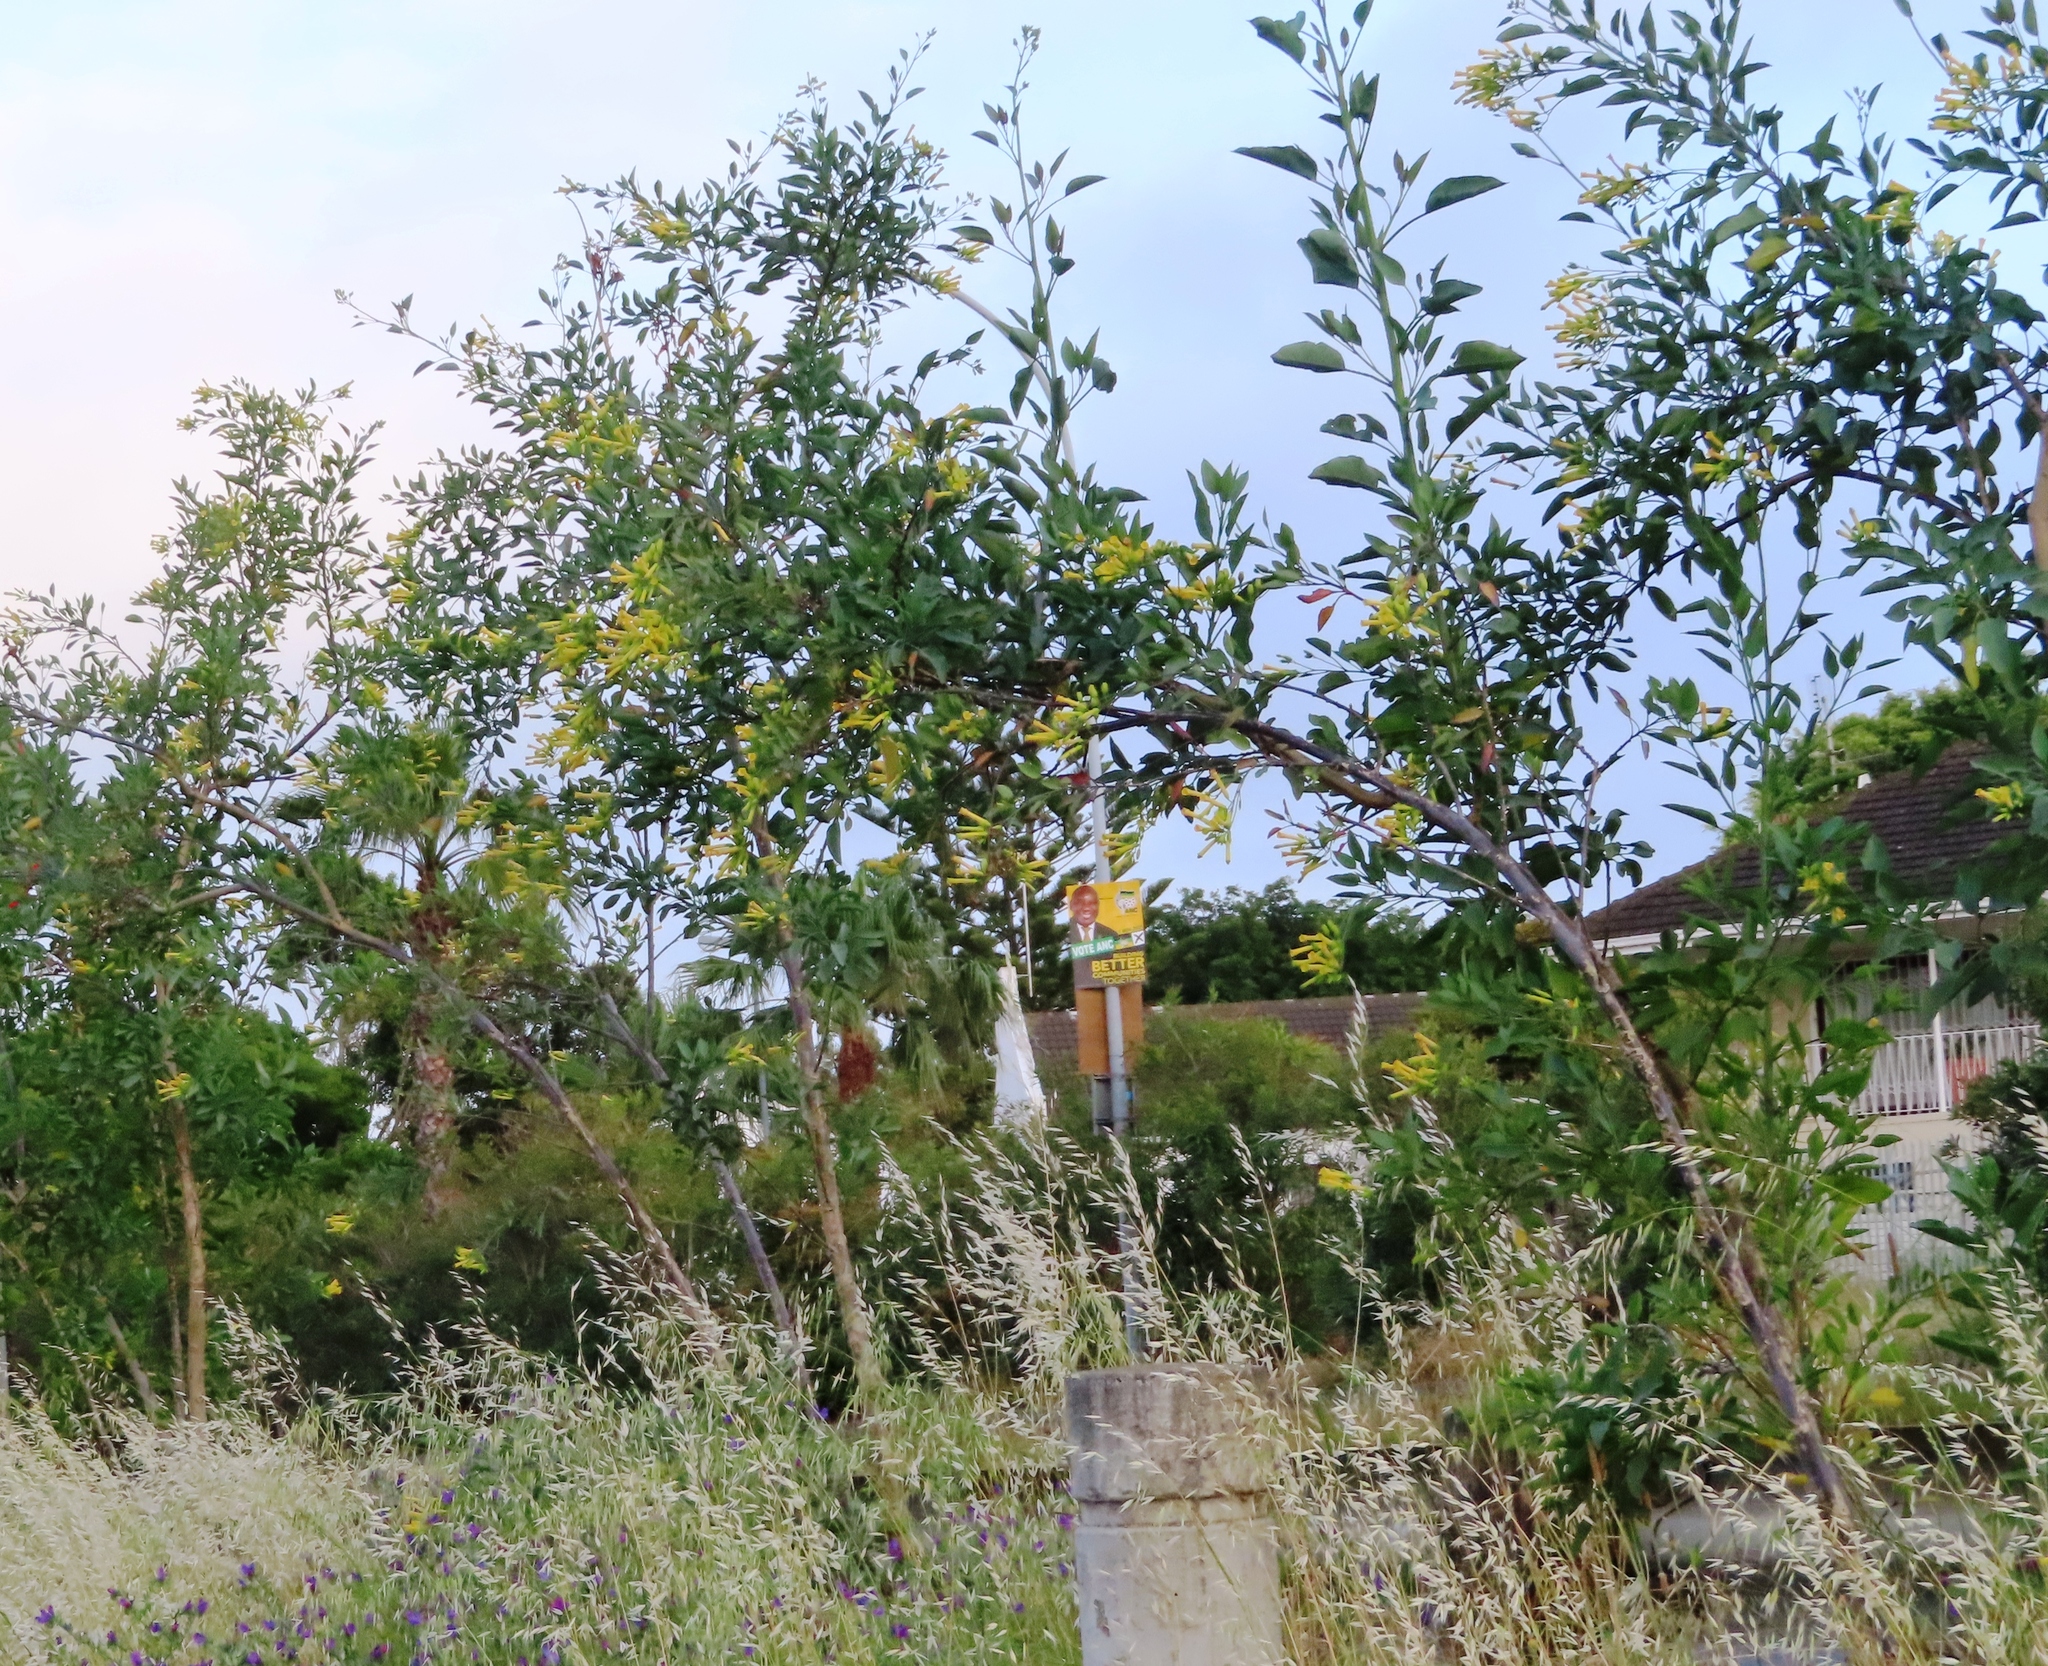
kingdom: Plantae
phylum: Tracheophyta
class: Magnoliopsida
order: Solanales
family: Solanaceae
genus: Nicotiana
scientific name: Nicotiana glauca
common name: Tree tobacco
